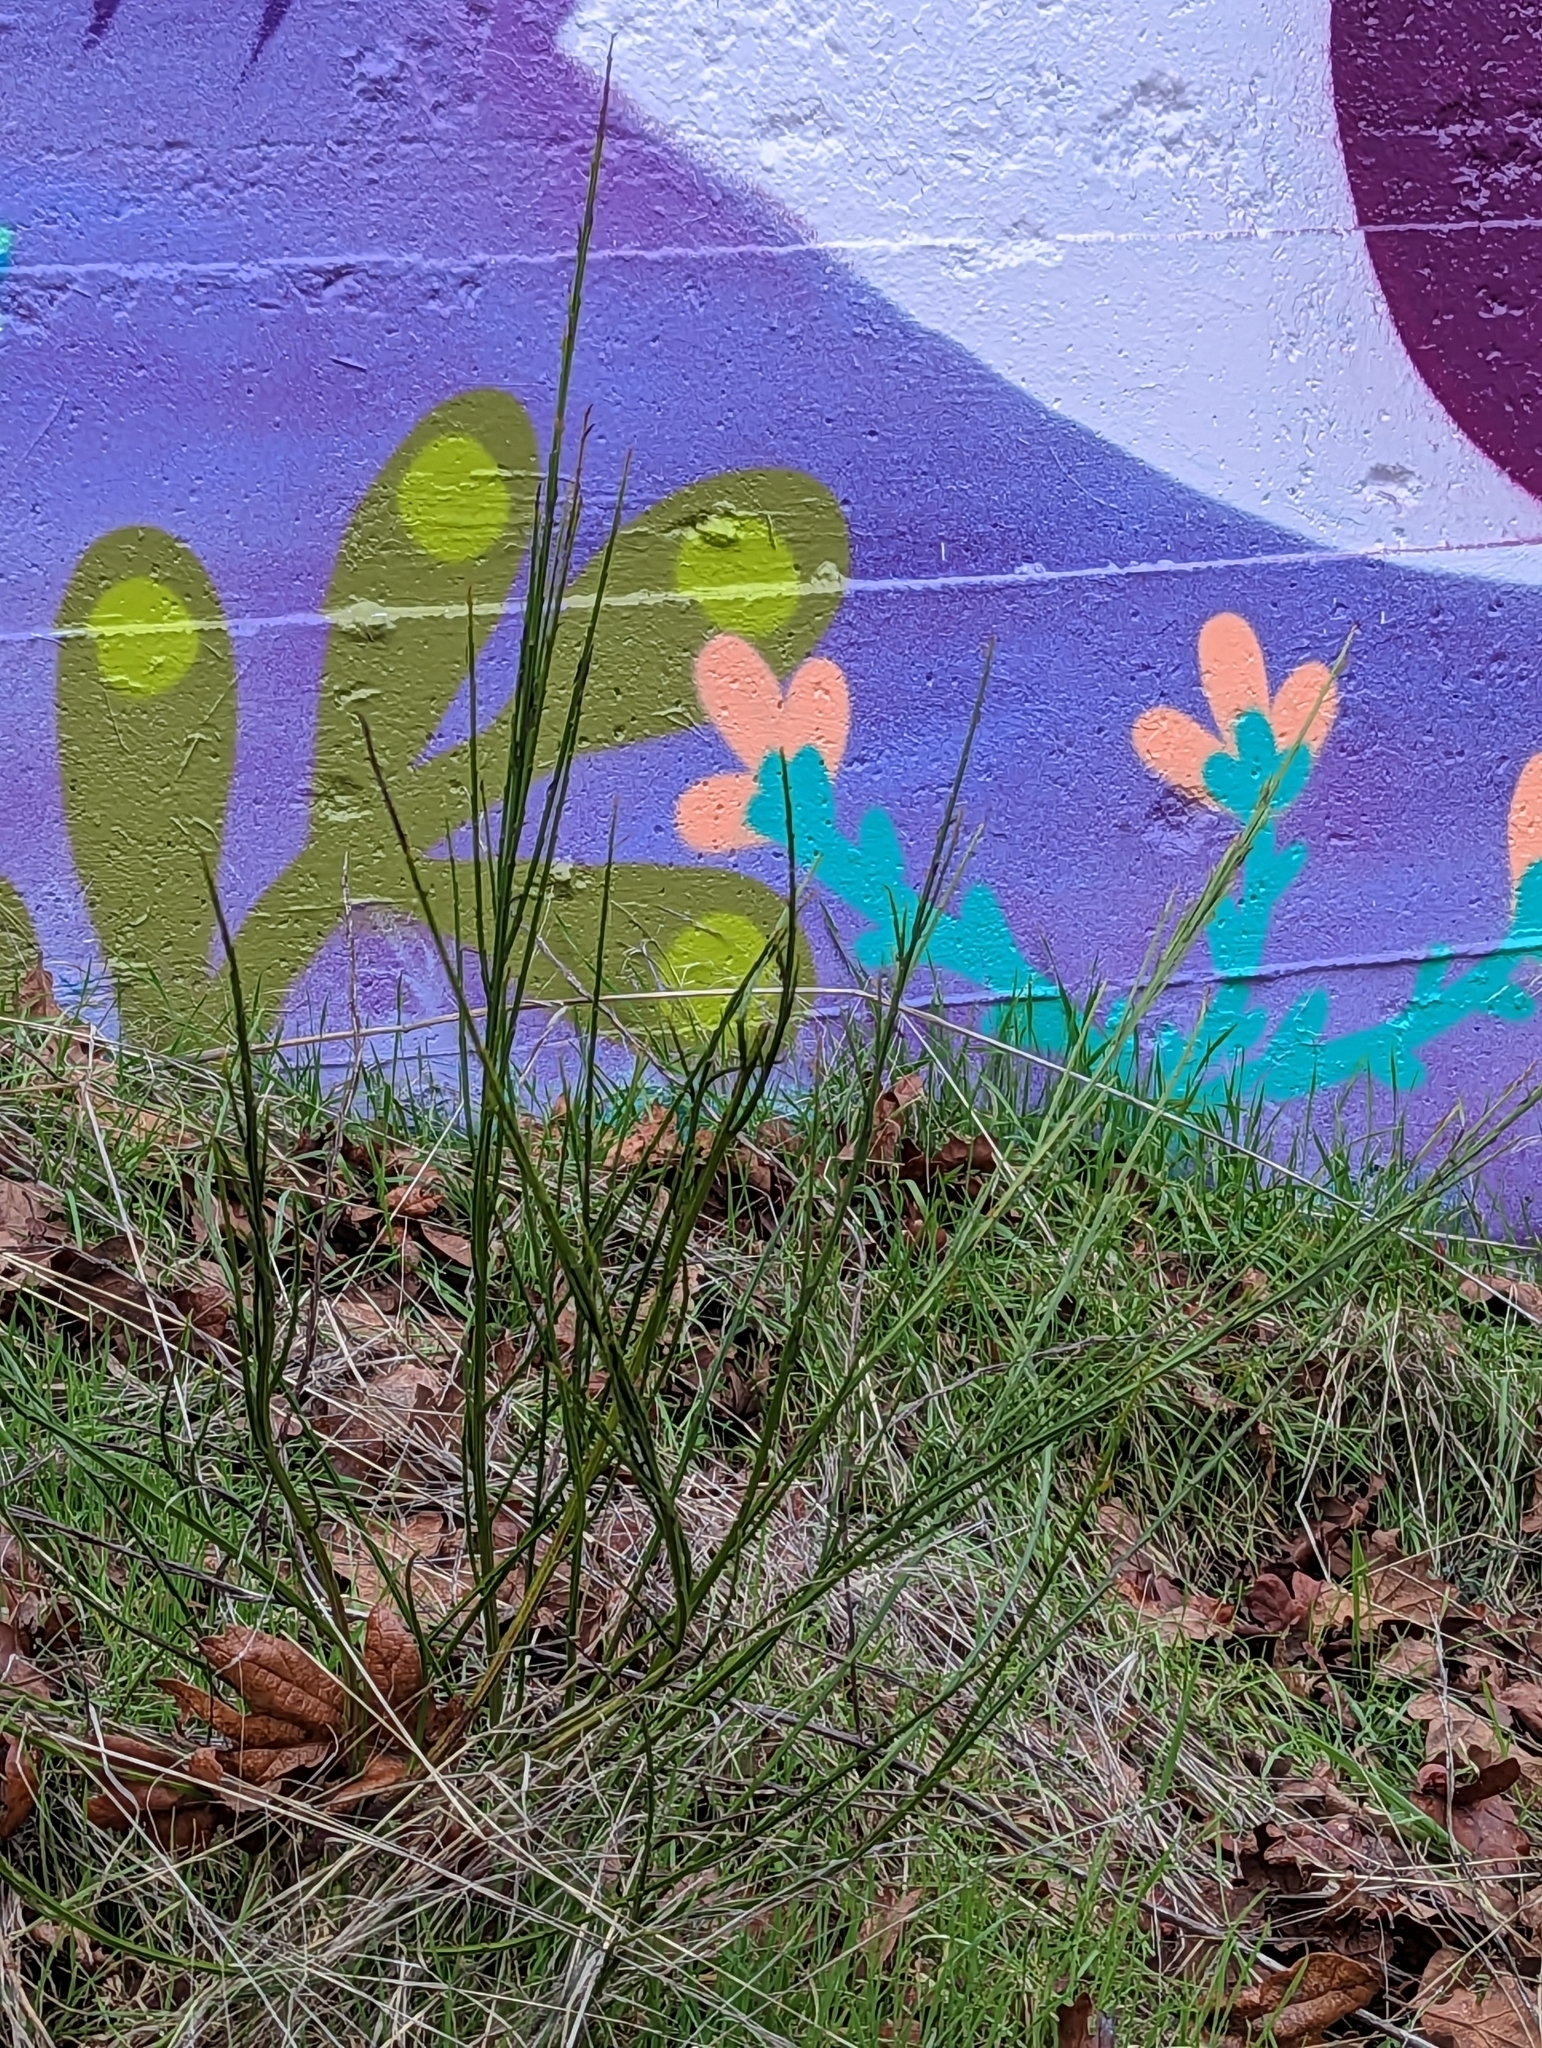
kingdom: Plantae
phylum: Tracheophyta
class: Magnoliopsida
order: Fabales
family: Fabaceae
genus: Cytisus
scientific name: Cytisus scoparius
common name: Scotch broom
